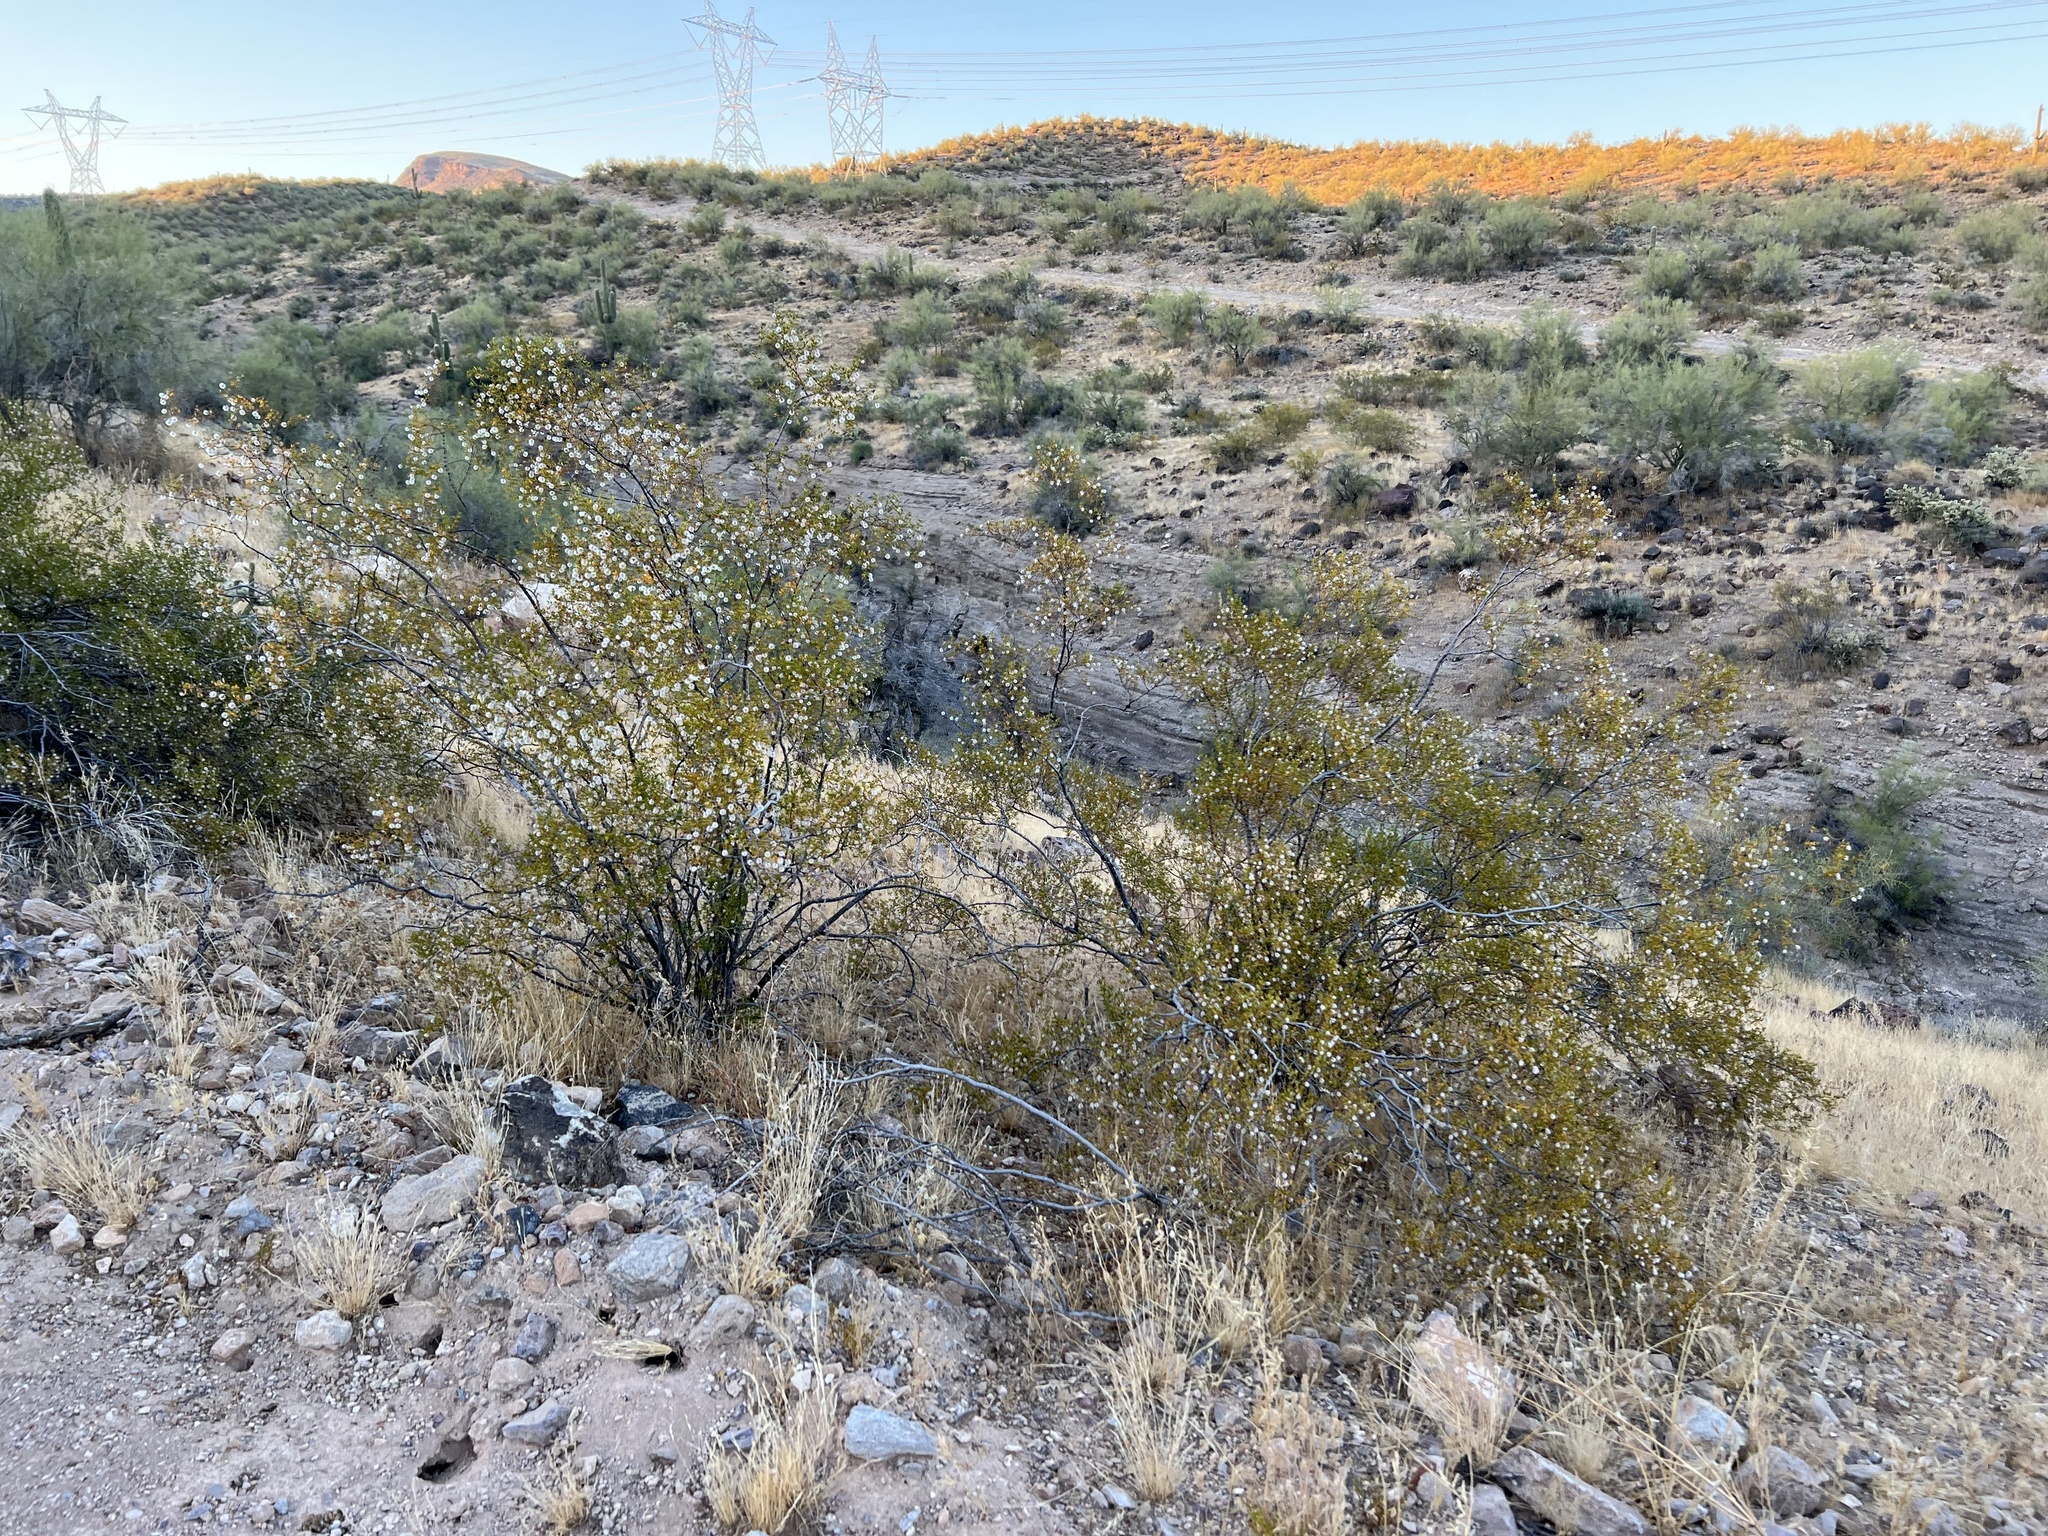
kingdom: Plantae
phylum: Tracheophyta
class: Magnoliopsida
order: Zygophyllales
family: Zygophyllaceae
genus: Larrea
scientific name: Larrea tridentata
